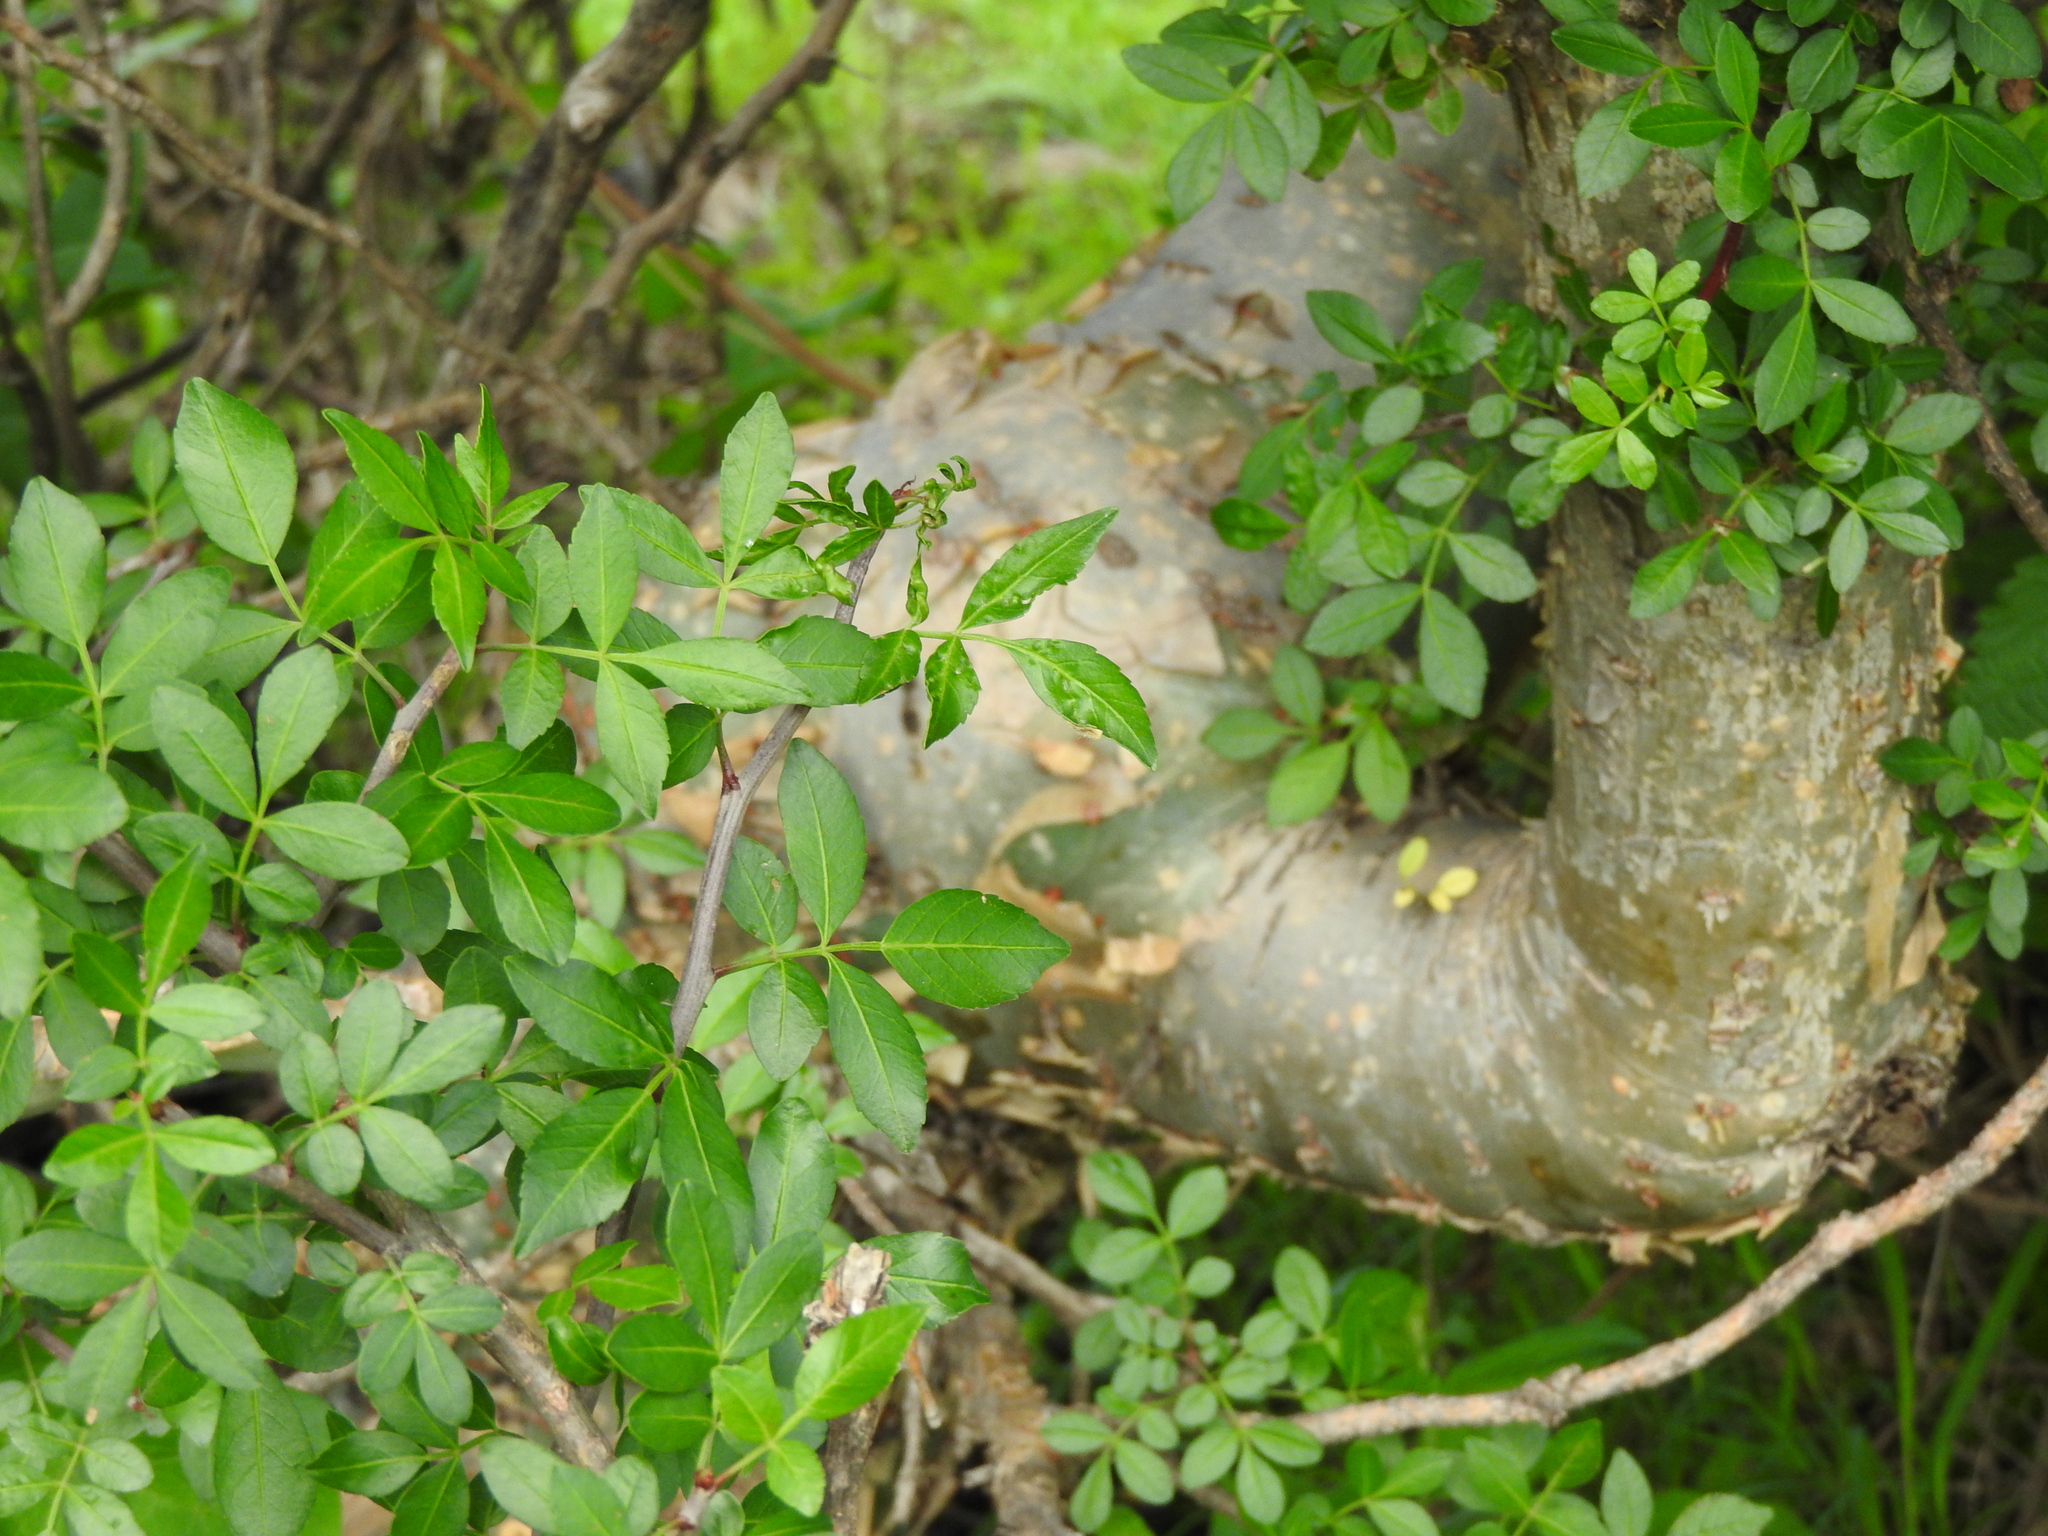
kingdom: Plantae
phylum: Tracheophyta
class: Magnoliopsida
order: Sapindales
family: Burseraceae
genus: Bursera
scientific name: Bursera fagaroides
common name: Elephant tree
